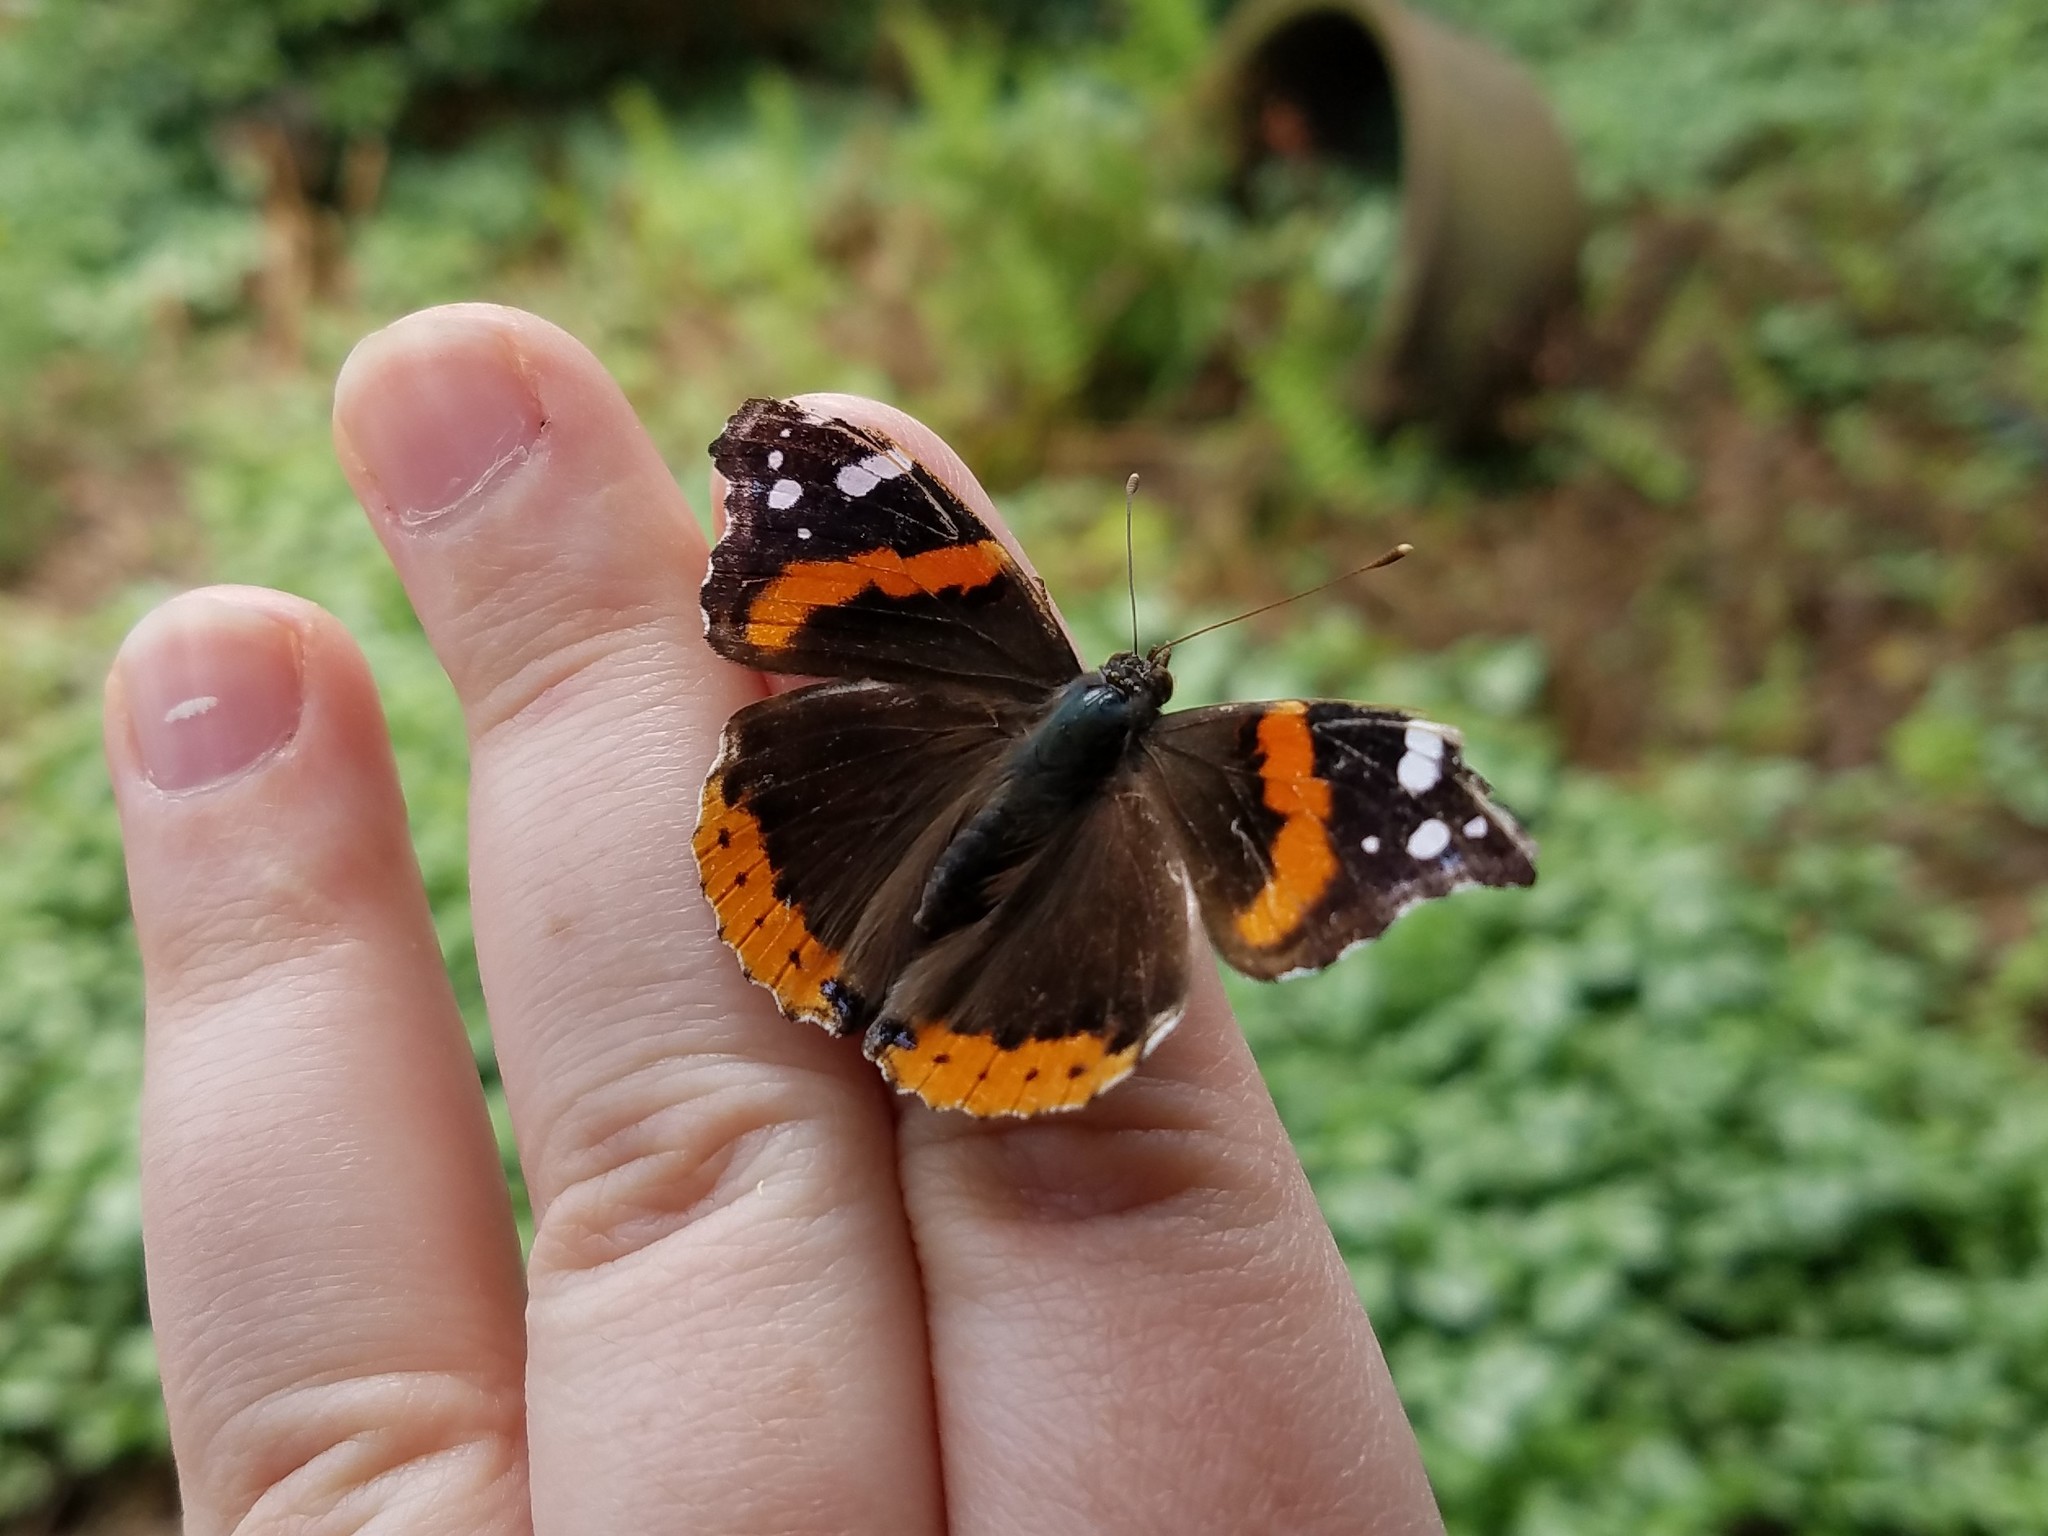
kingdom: Animalia
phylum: Arthropoda
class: Insecta
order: Lepidoptera
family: Nymphalidae
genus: Vanessa
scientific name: Vanessa atalanta
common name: Red admiral
